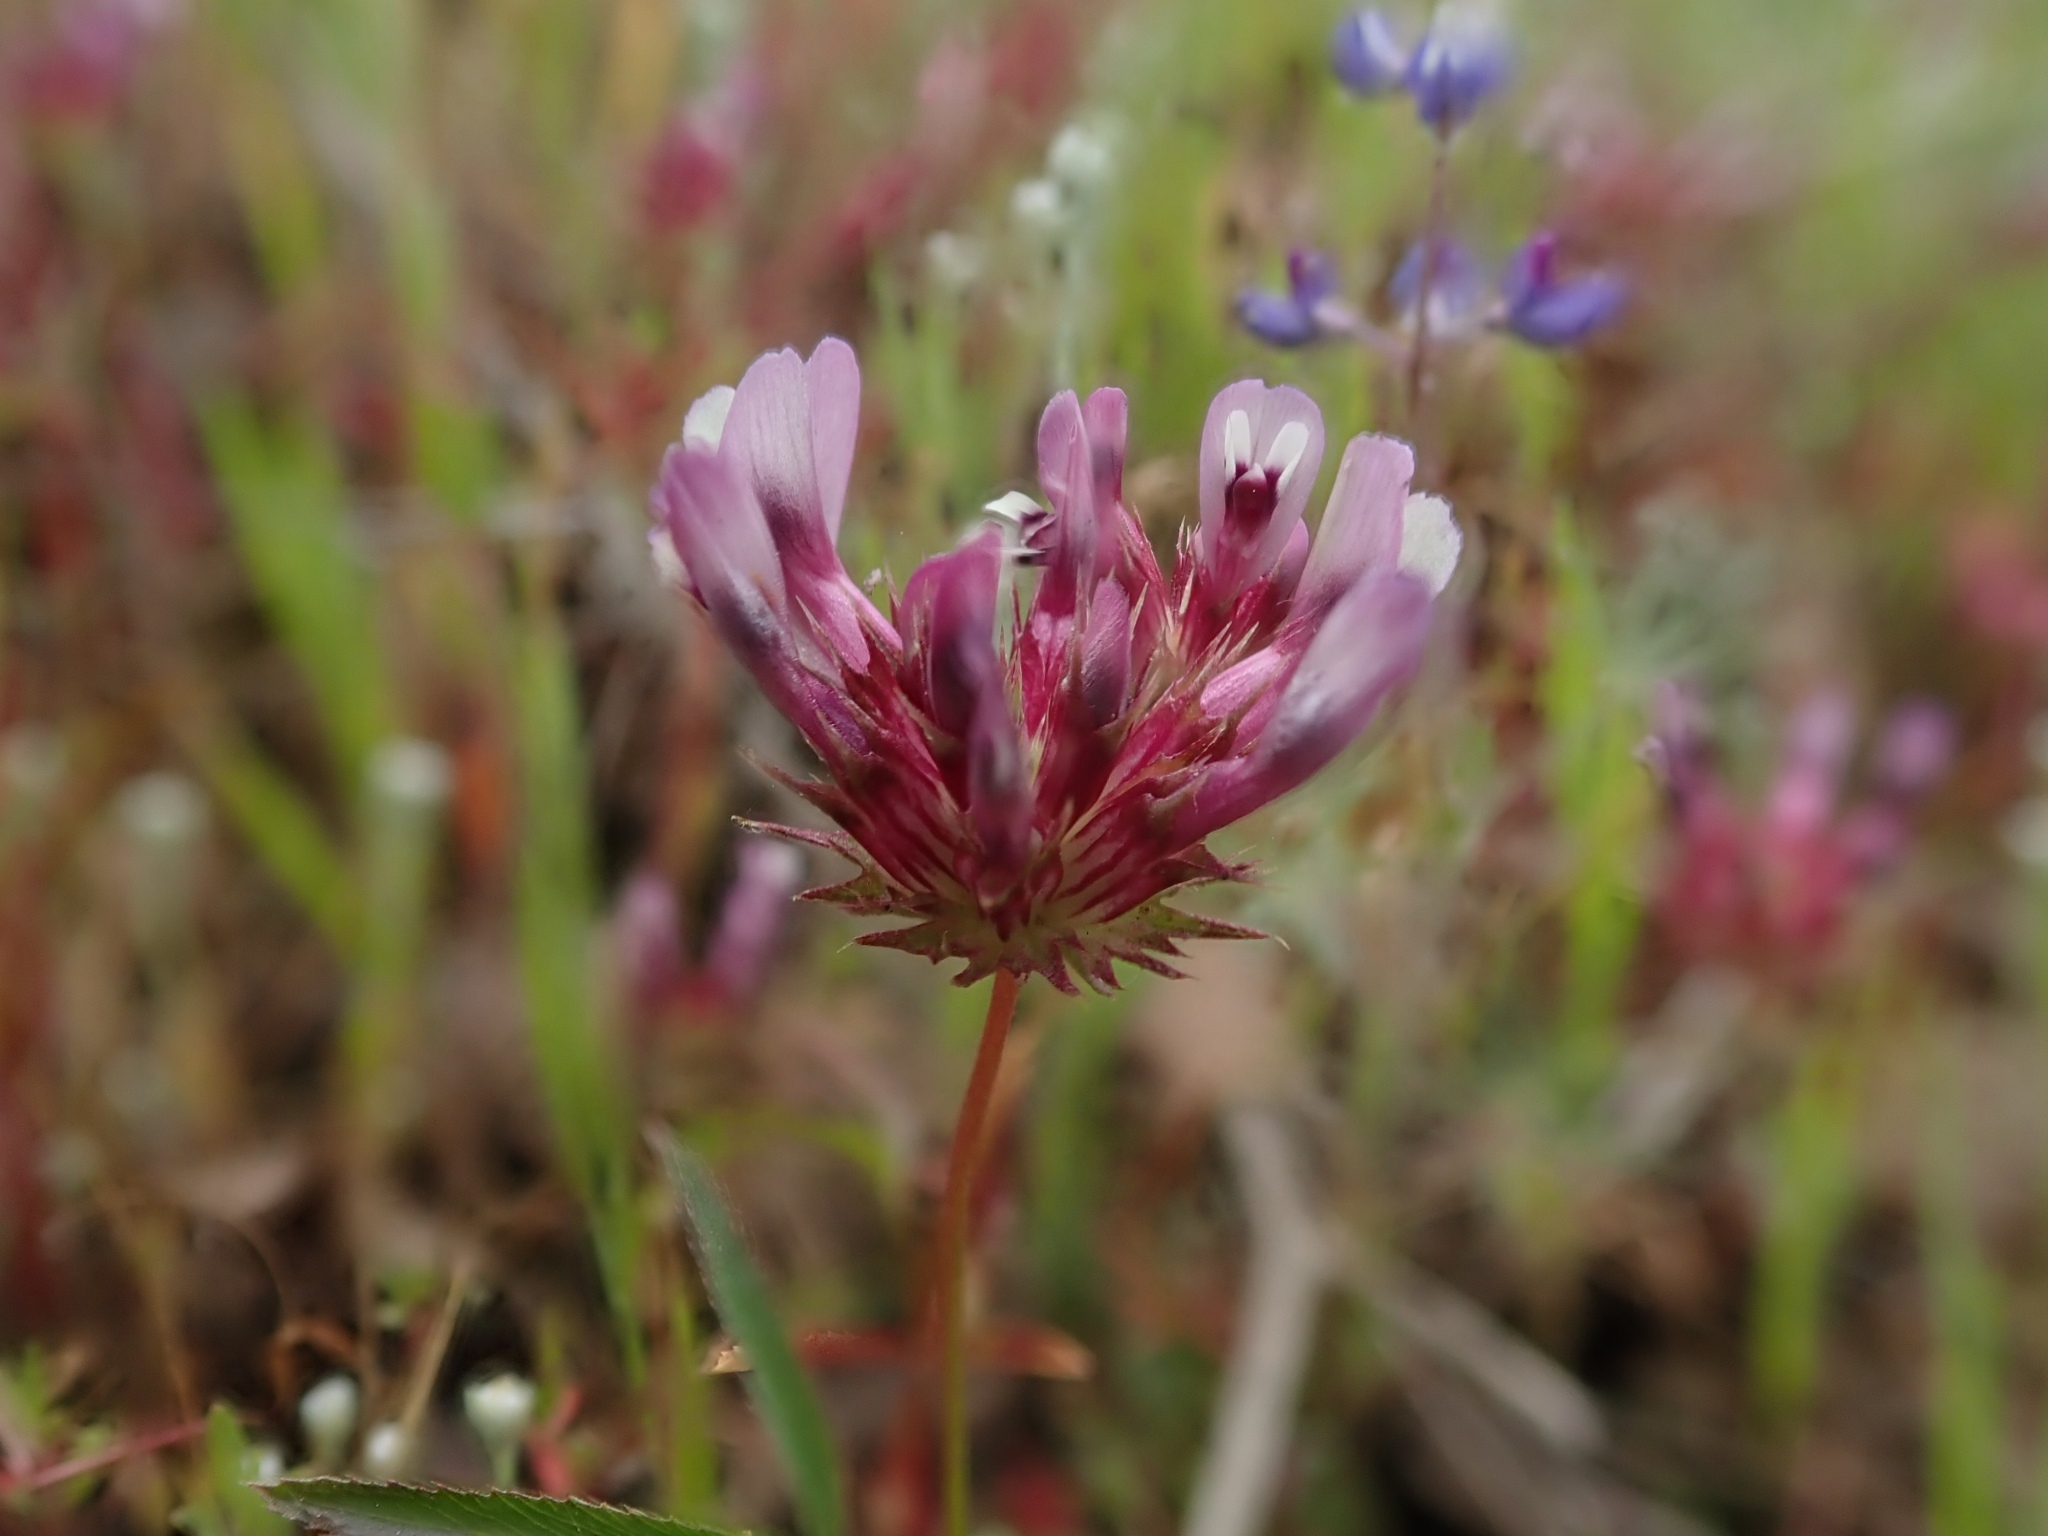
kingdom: Plantae
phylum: Tracheophyta
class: Magnoliopsida
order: Fabales
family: Fabaceae
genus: Trifolium
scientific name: Trifolium willdenovii
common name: Tomcat clover
